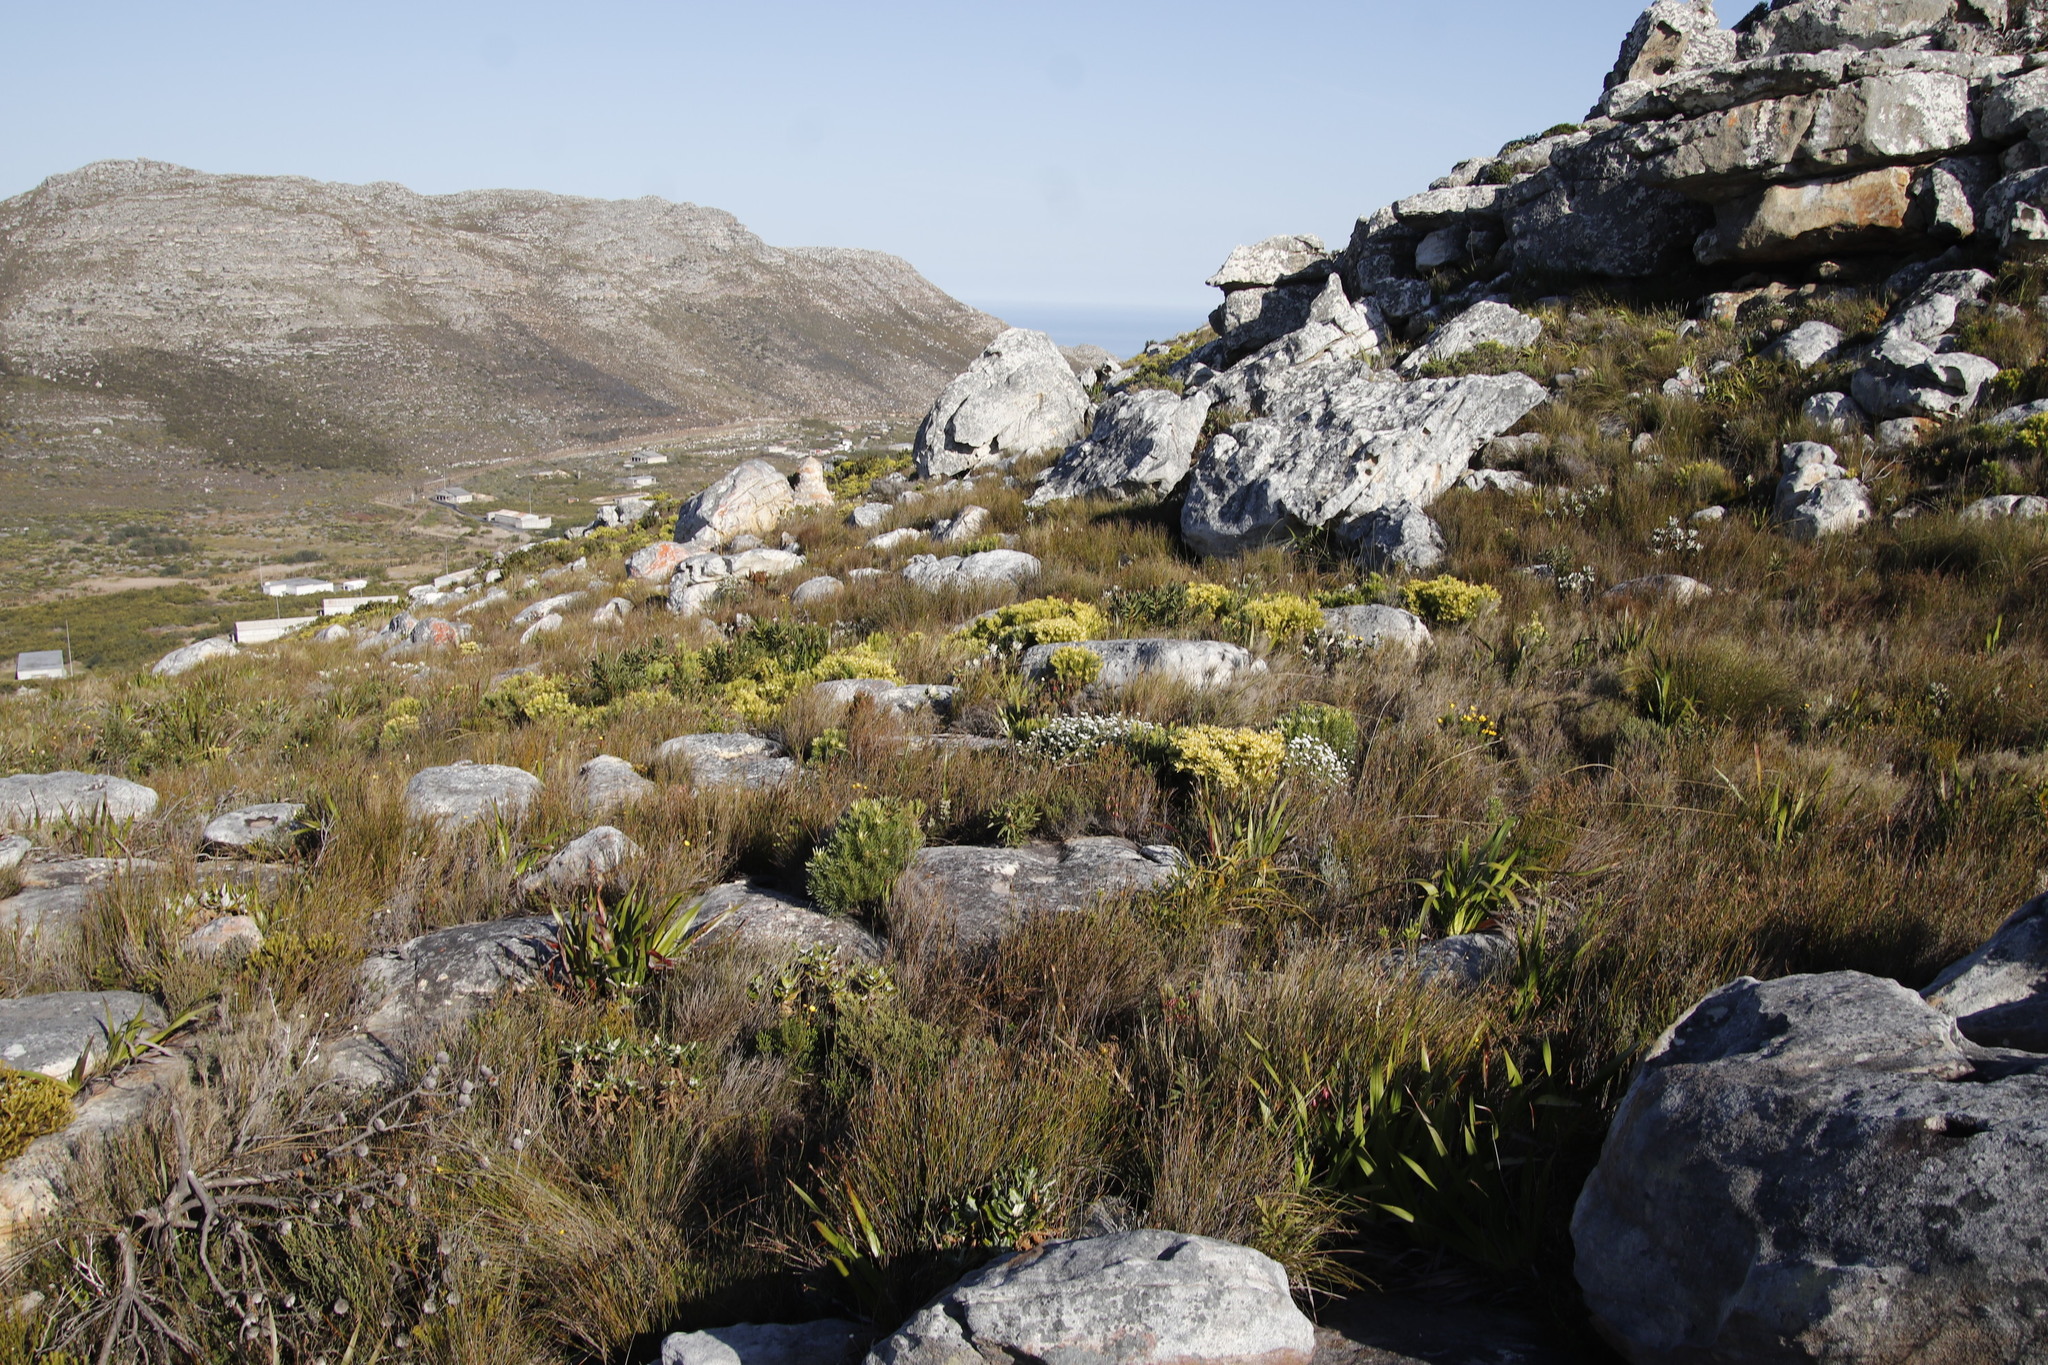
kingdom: Plantae
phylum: Tracheophyta
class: Magnoliopsida
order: Proteales
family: Proteaceae
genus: Leucadendron
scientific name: Leucadendron xanthoconus
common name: Sickle-leaf conebush
